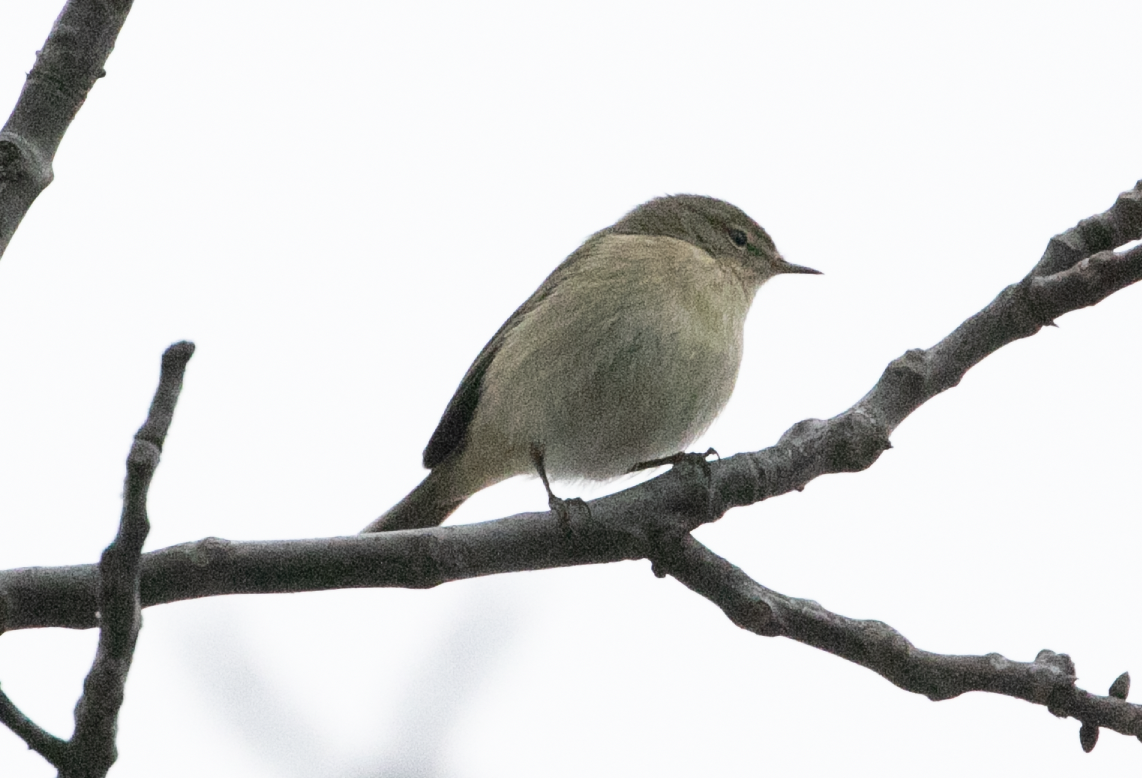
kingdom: Animalia
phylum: Chordata
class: Aves
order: Passeriformes
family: Phylloscopidae
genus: Phylloscopus
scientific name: Phylloscopus collybita
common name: Common chiffchaff
